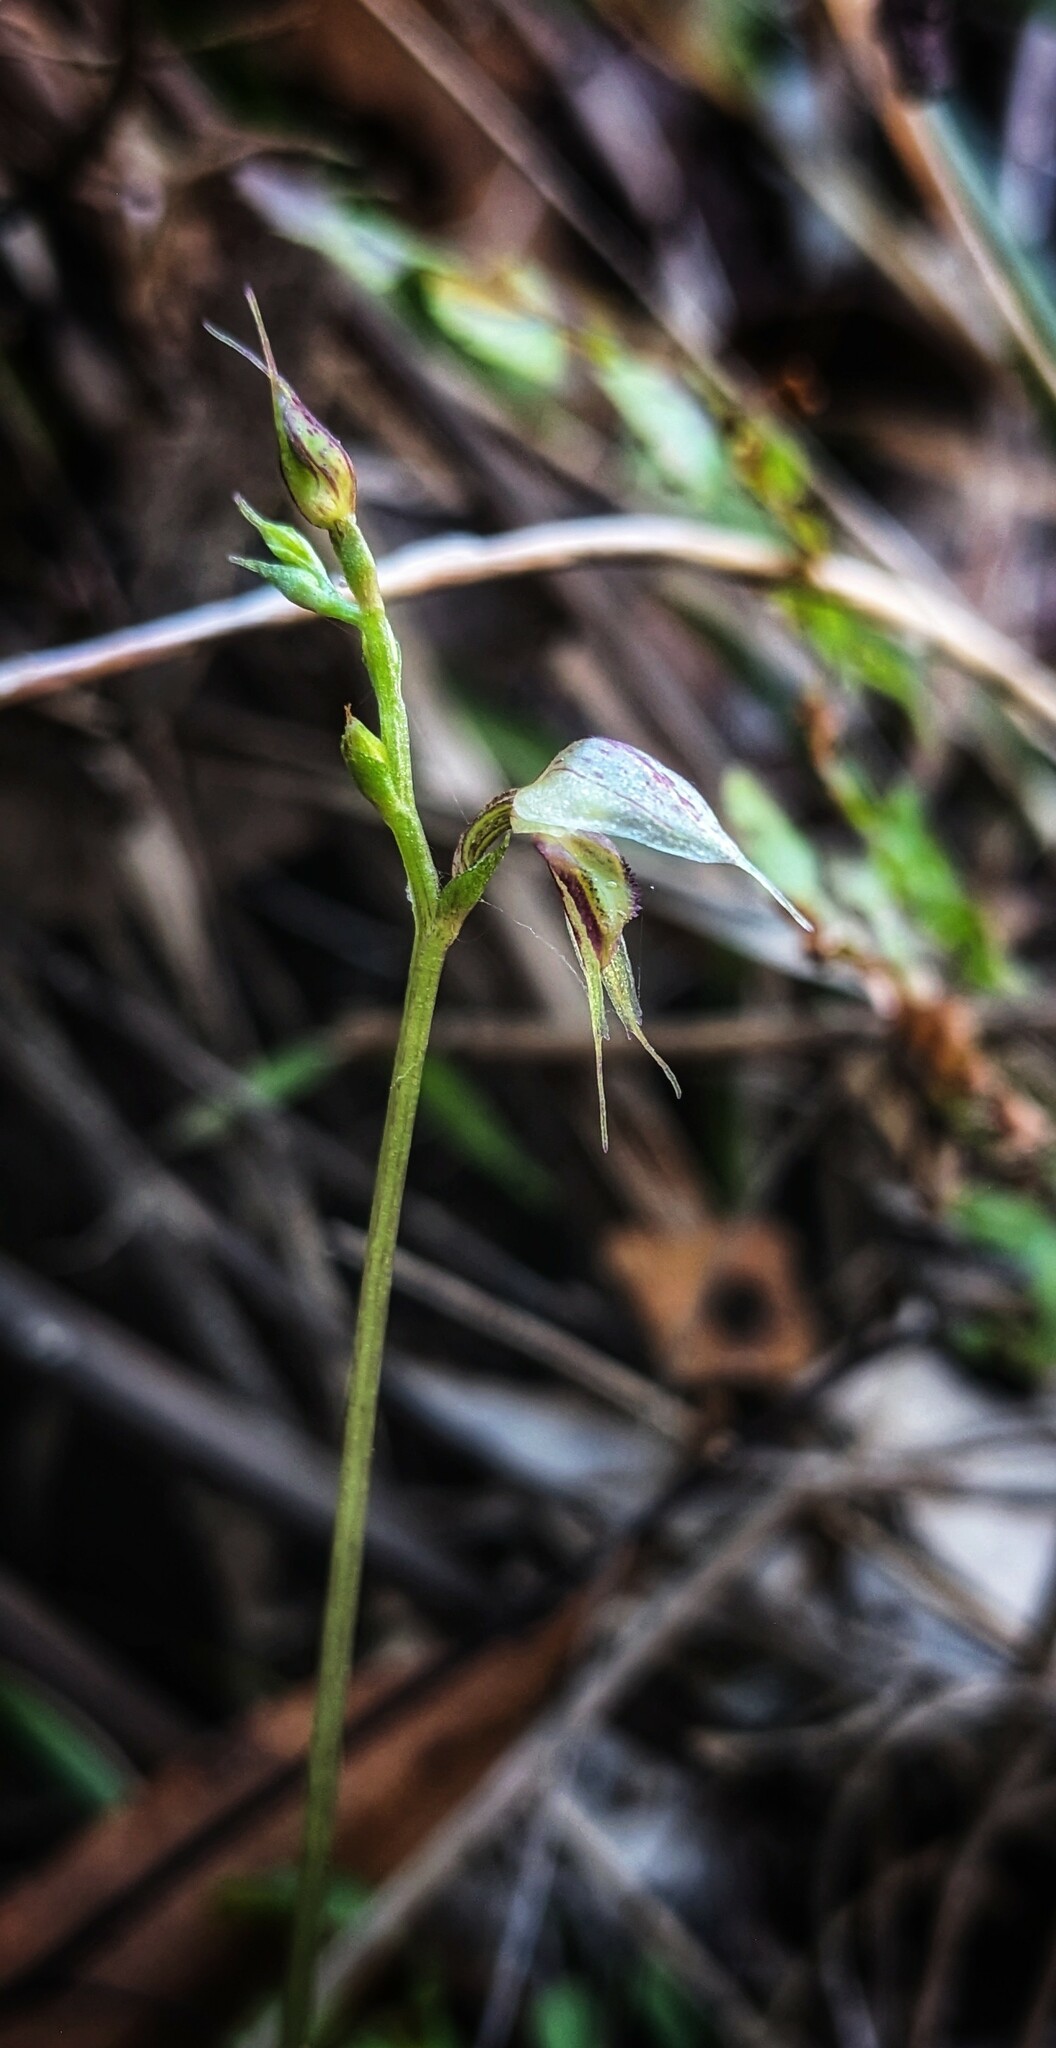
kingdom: Plantae
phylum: Tracheophyta
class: Liliopsida
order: Asparagales
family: Orchidaceae
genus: Acianthus
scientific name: Acianthus fornicatus
